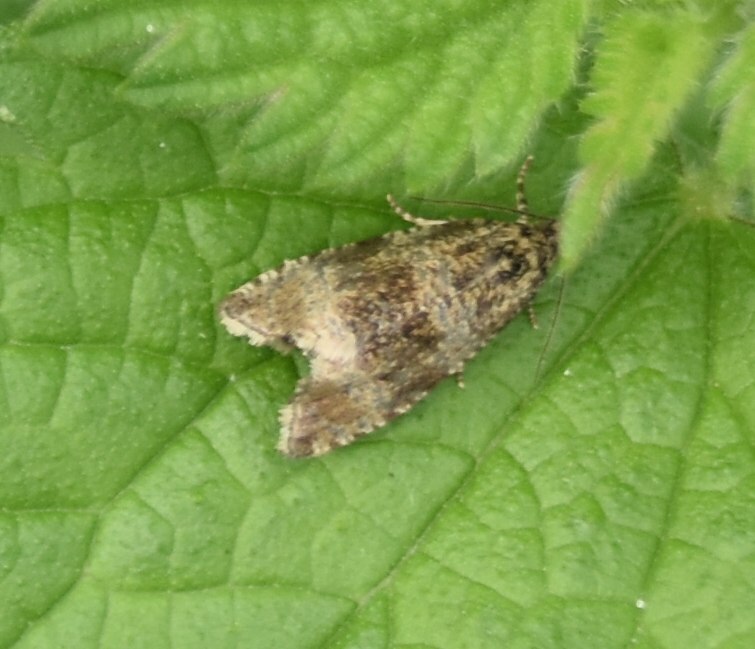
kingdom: Animalia
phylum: Arthropoda
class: Insecta
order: Lepidoptera
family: Tortricidae
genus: Syricoris
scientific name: Syricoris lacunana
